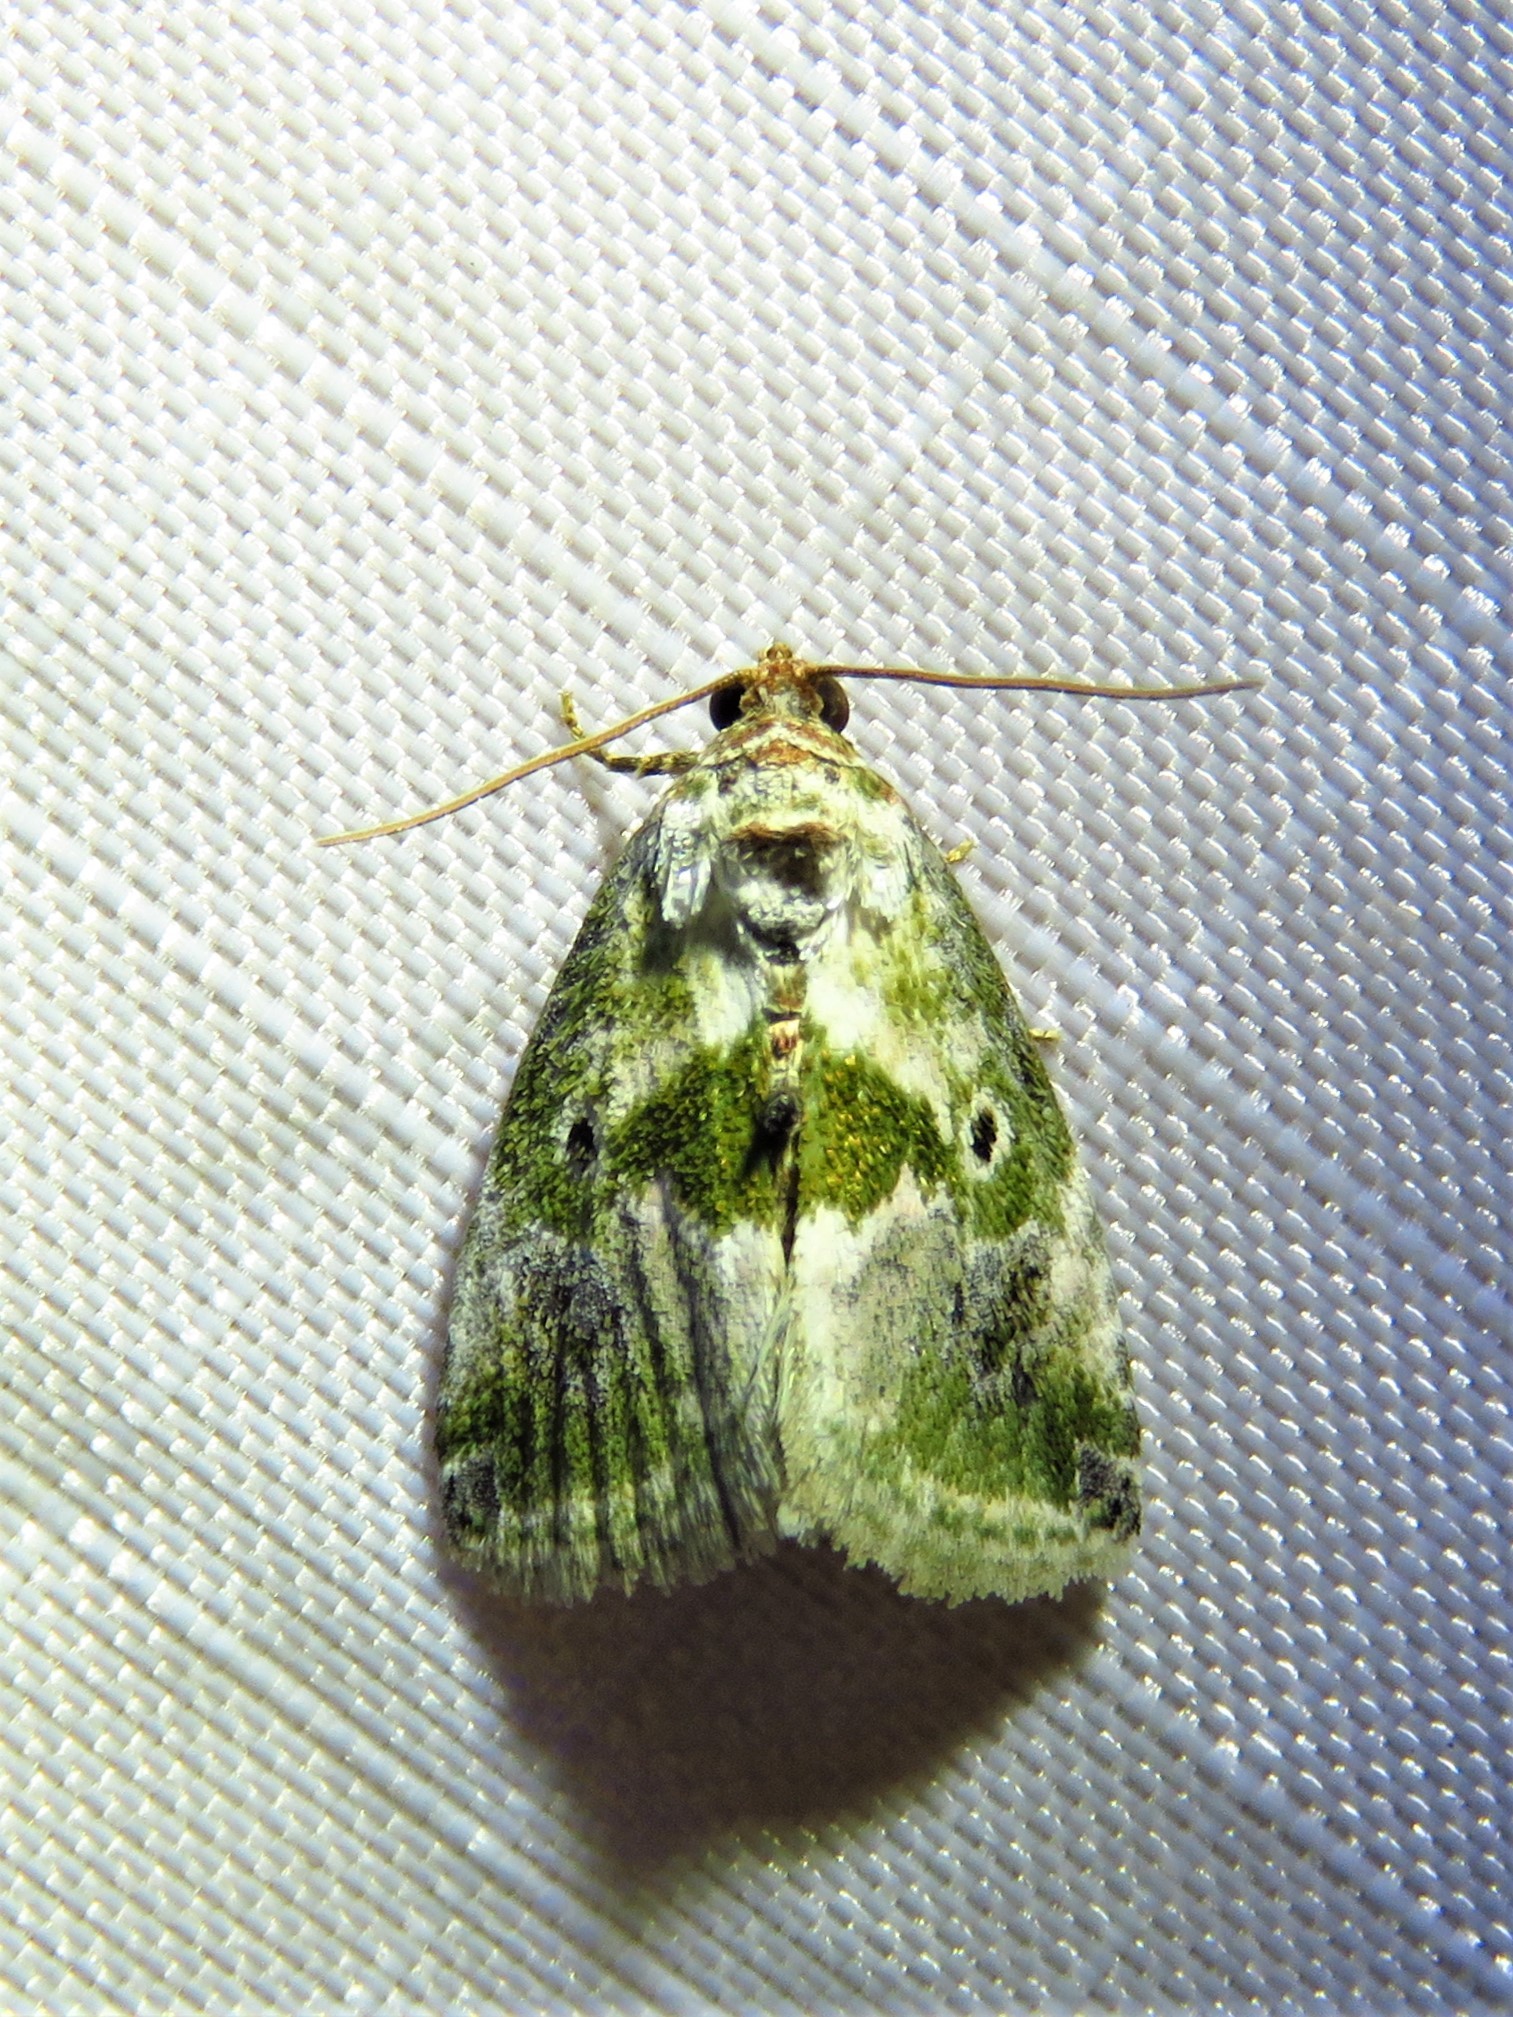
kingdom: Animalia
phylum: Arthropoda
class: Insecta
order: Lepidoptera
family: Noctuidae
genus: Maliattha
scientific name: Maliattha synochitis
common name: Black-dotted glyph
